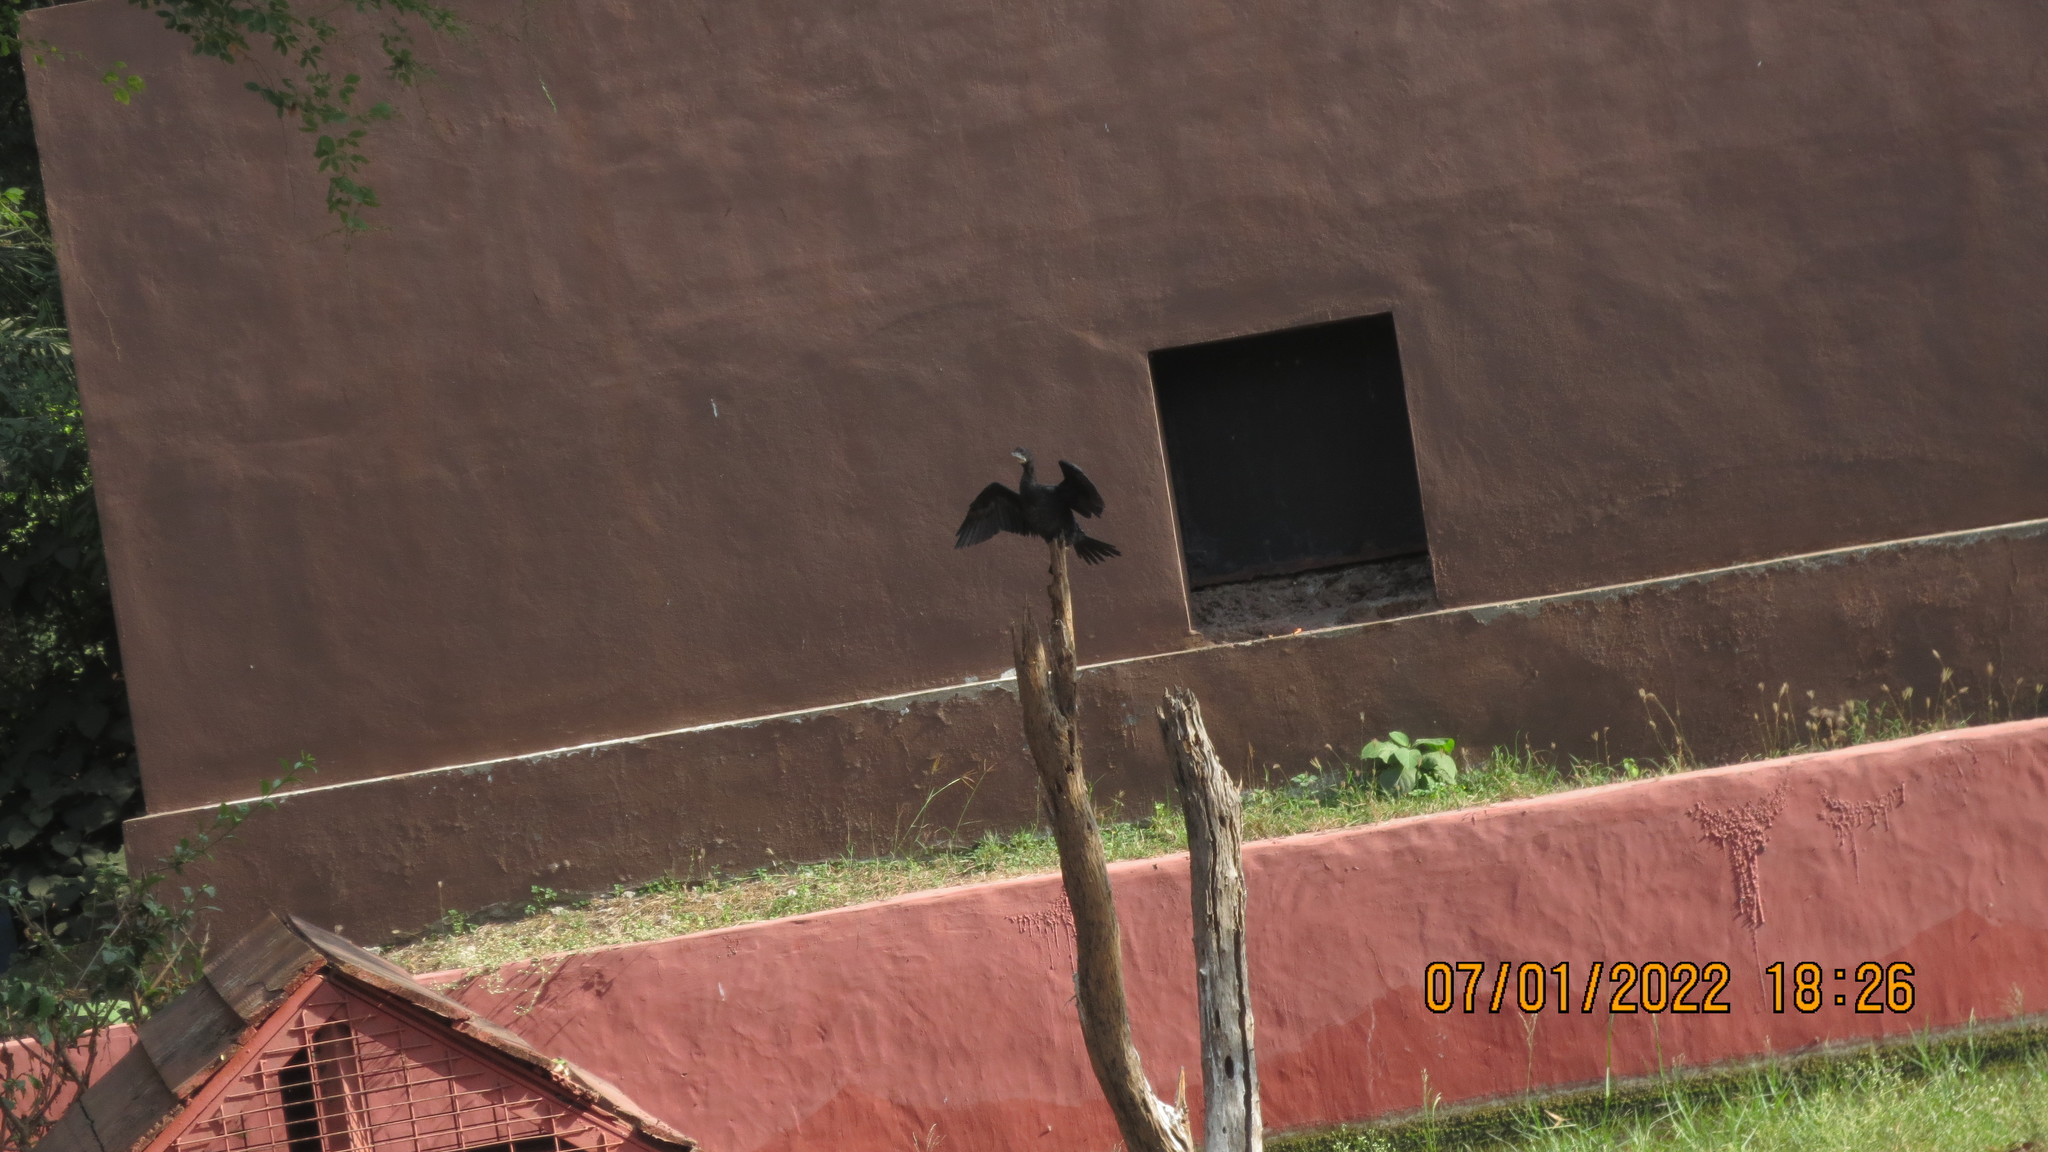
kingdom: Animalia
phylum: Chordata
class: Aves
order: Suliformes
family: Phalacrocoracidae
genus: Microcarbo
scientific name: Microcarbo niger
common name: Little cormorant
